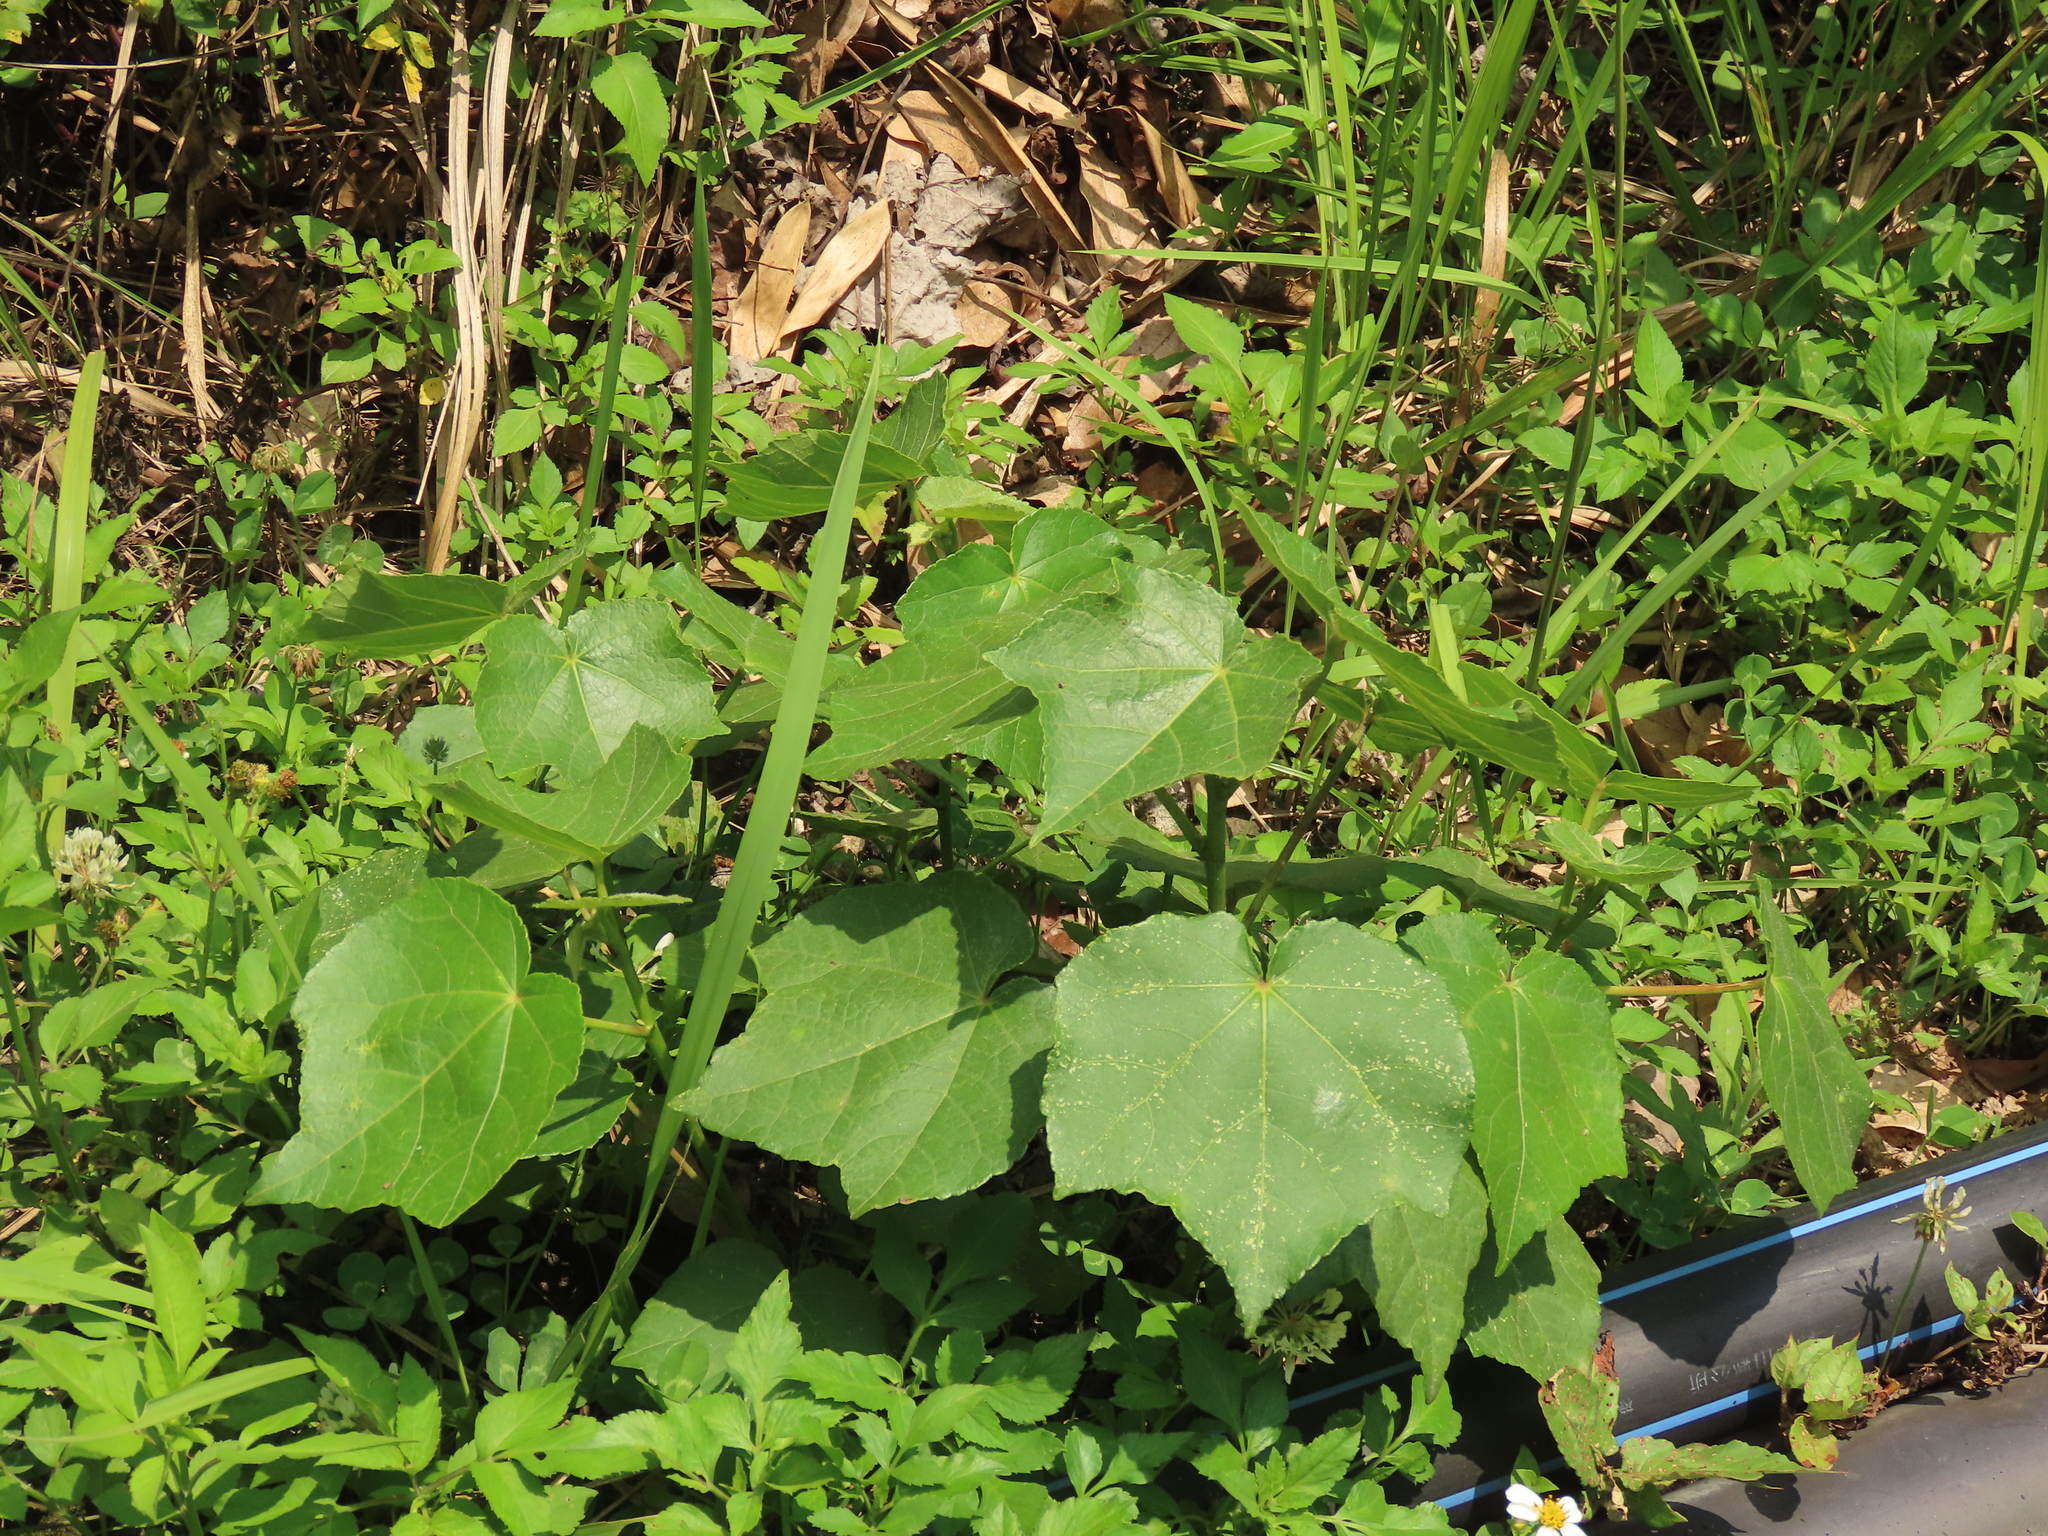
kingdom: Plantae
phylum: Tracheophyta
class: Magnoliopsida
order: Malvales
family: Malvaceae
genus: Hibiscus
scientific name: Hibiscus taiwanensis
